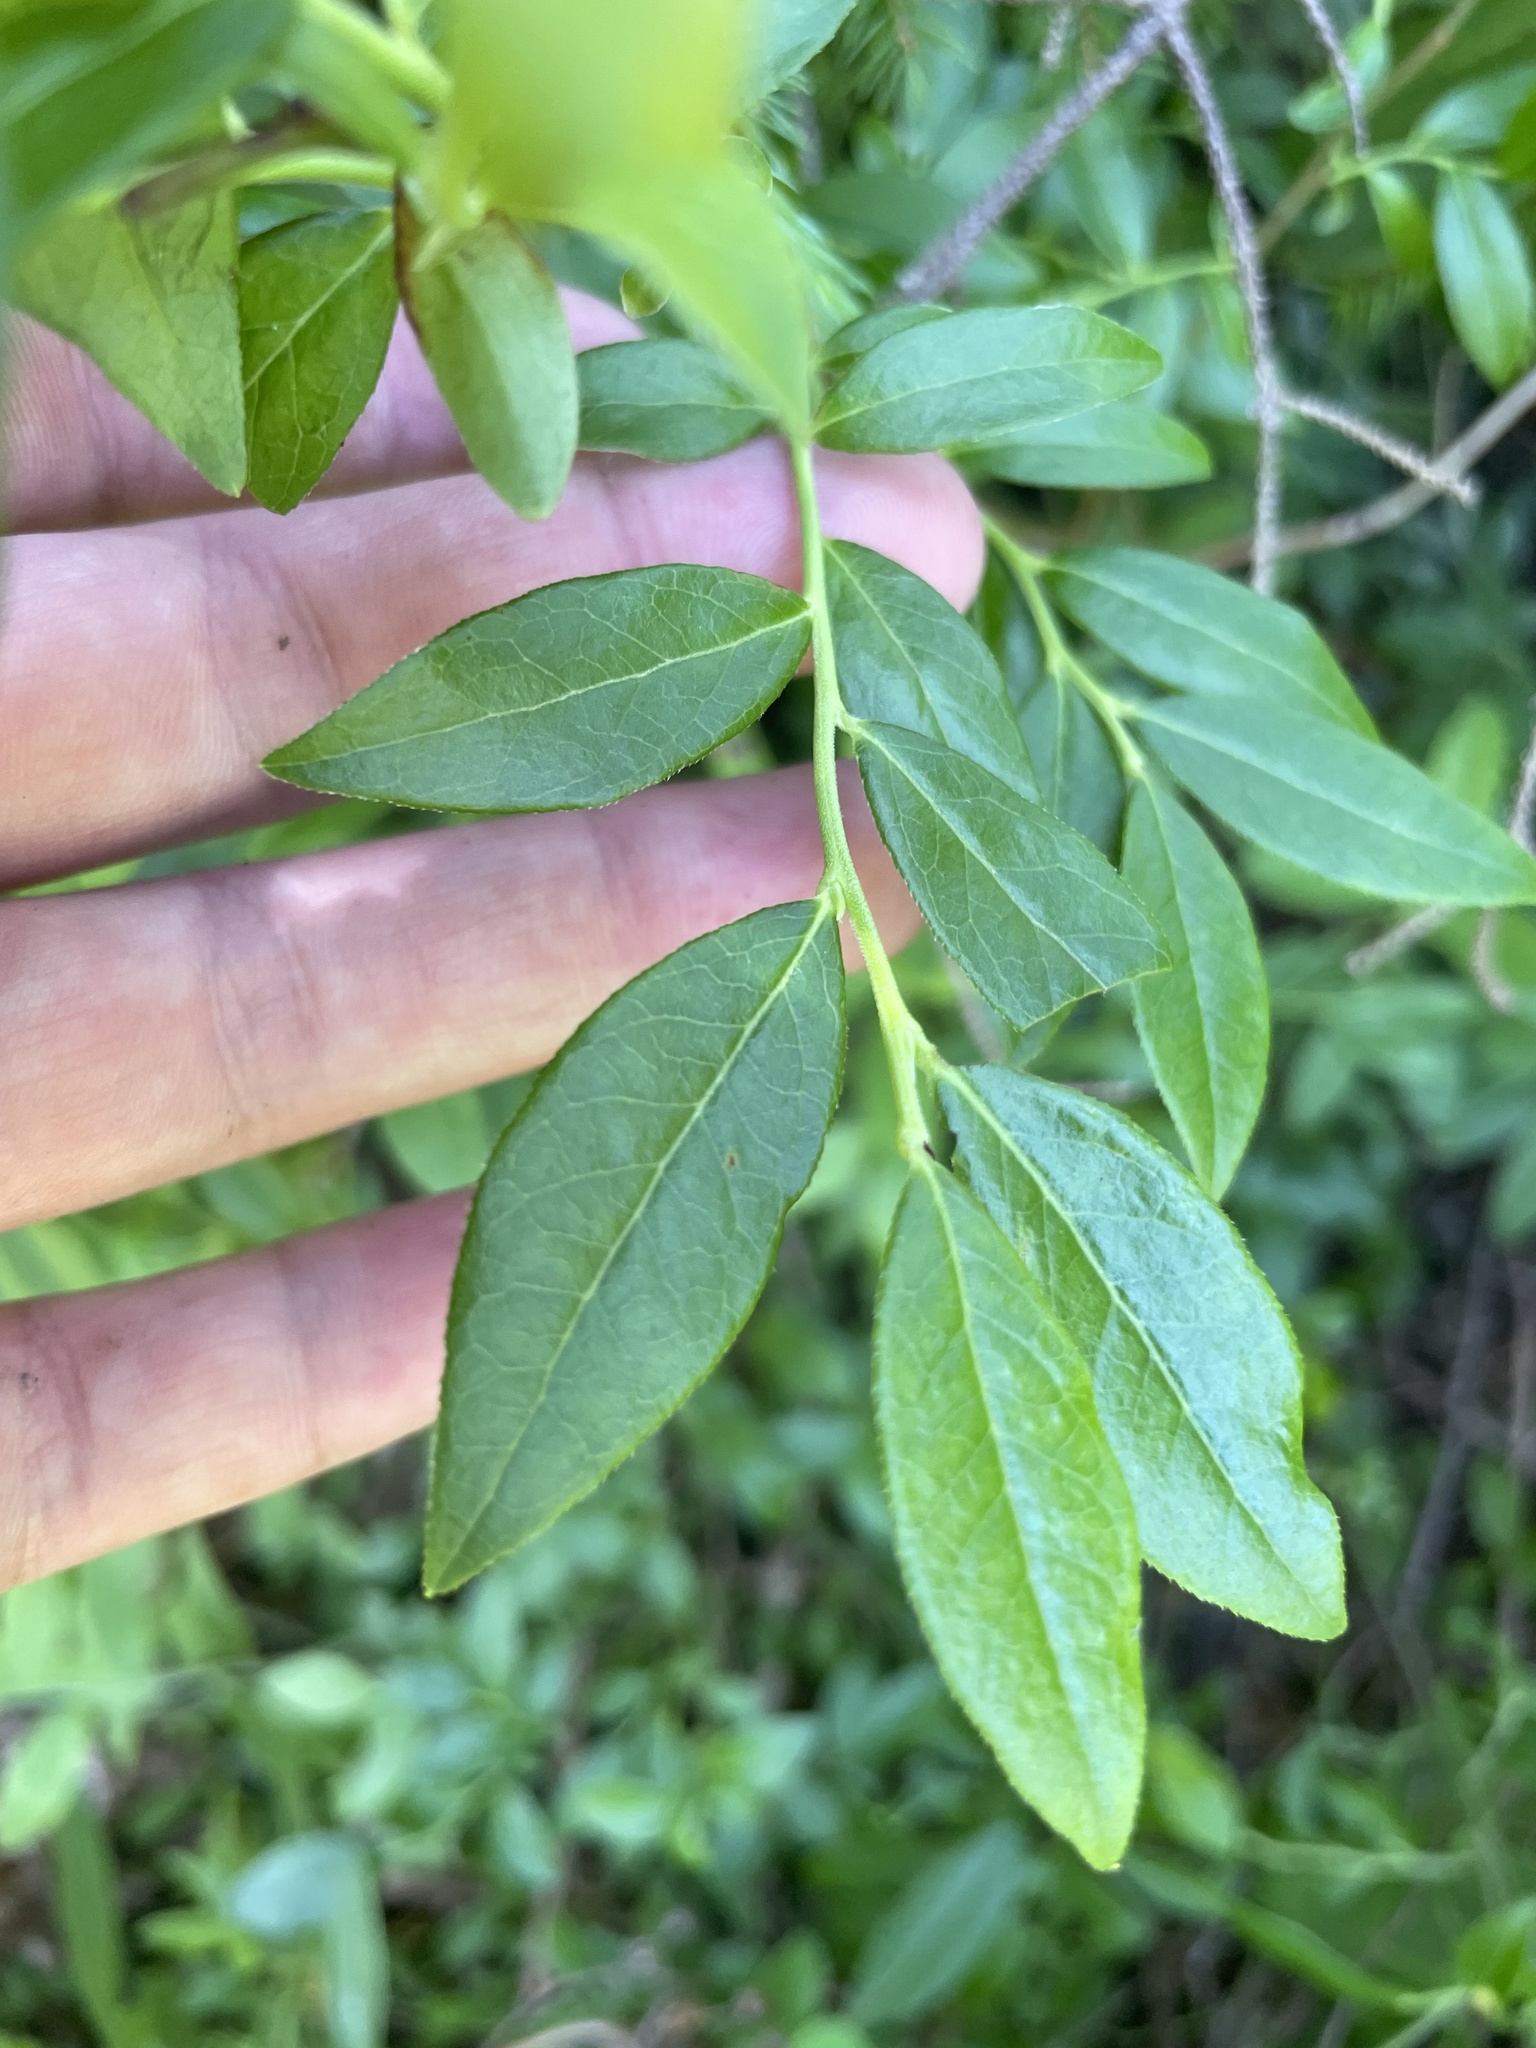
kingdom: Plantae
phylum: Tracheophyta
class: Magnoliopsida
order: Ericales
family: Ericaceae
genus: Vaccinium
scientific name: Vaccinium angustifolium
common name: Early lowbush blueberry
